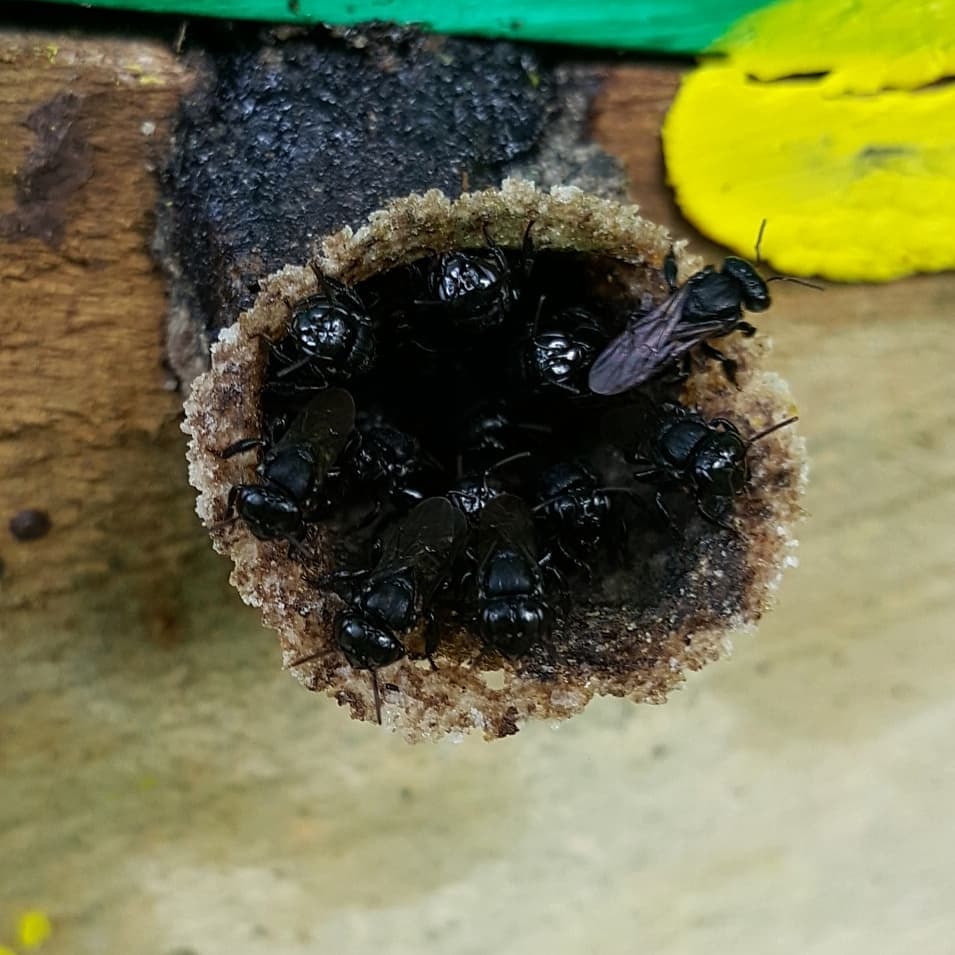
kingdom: Animalia
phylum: Arthropoda
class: Insecta
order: Hymenoptera
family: Apidae
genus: Scaptotrigona
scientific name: Scaptotrigona mexicana
